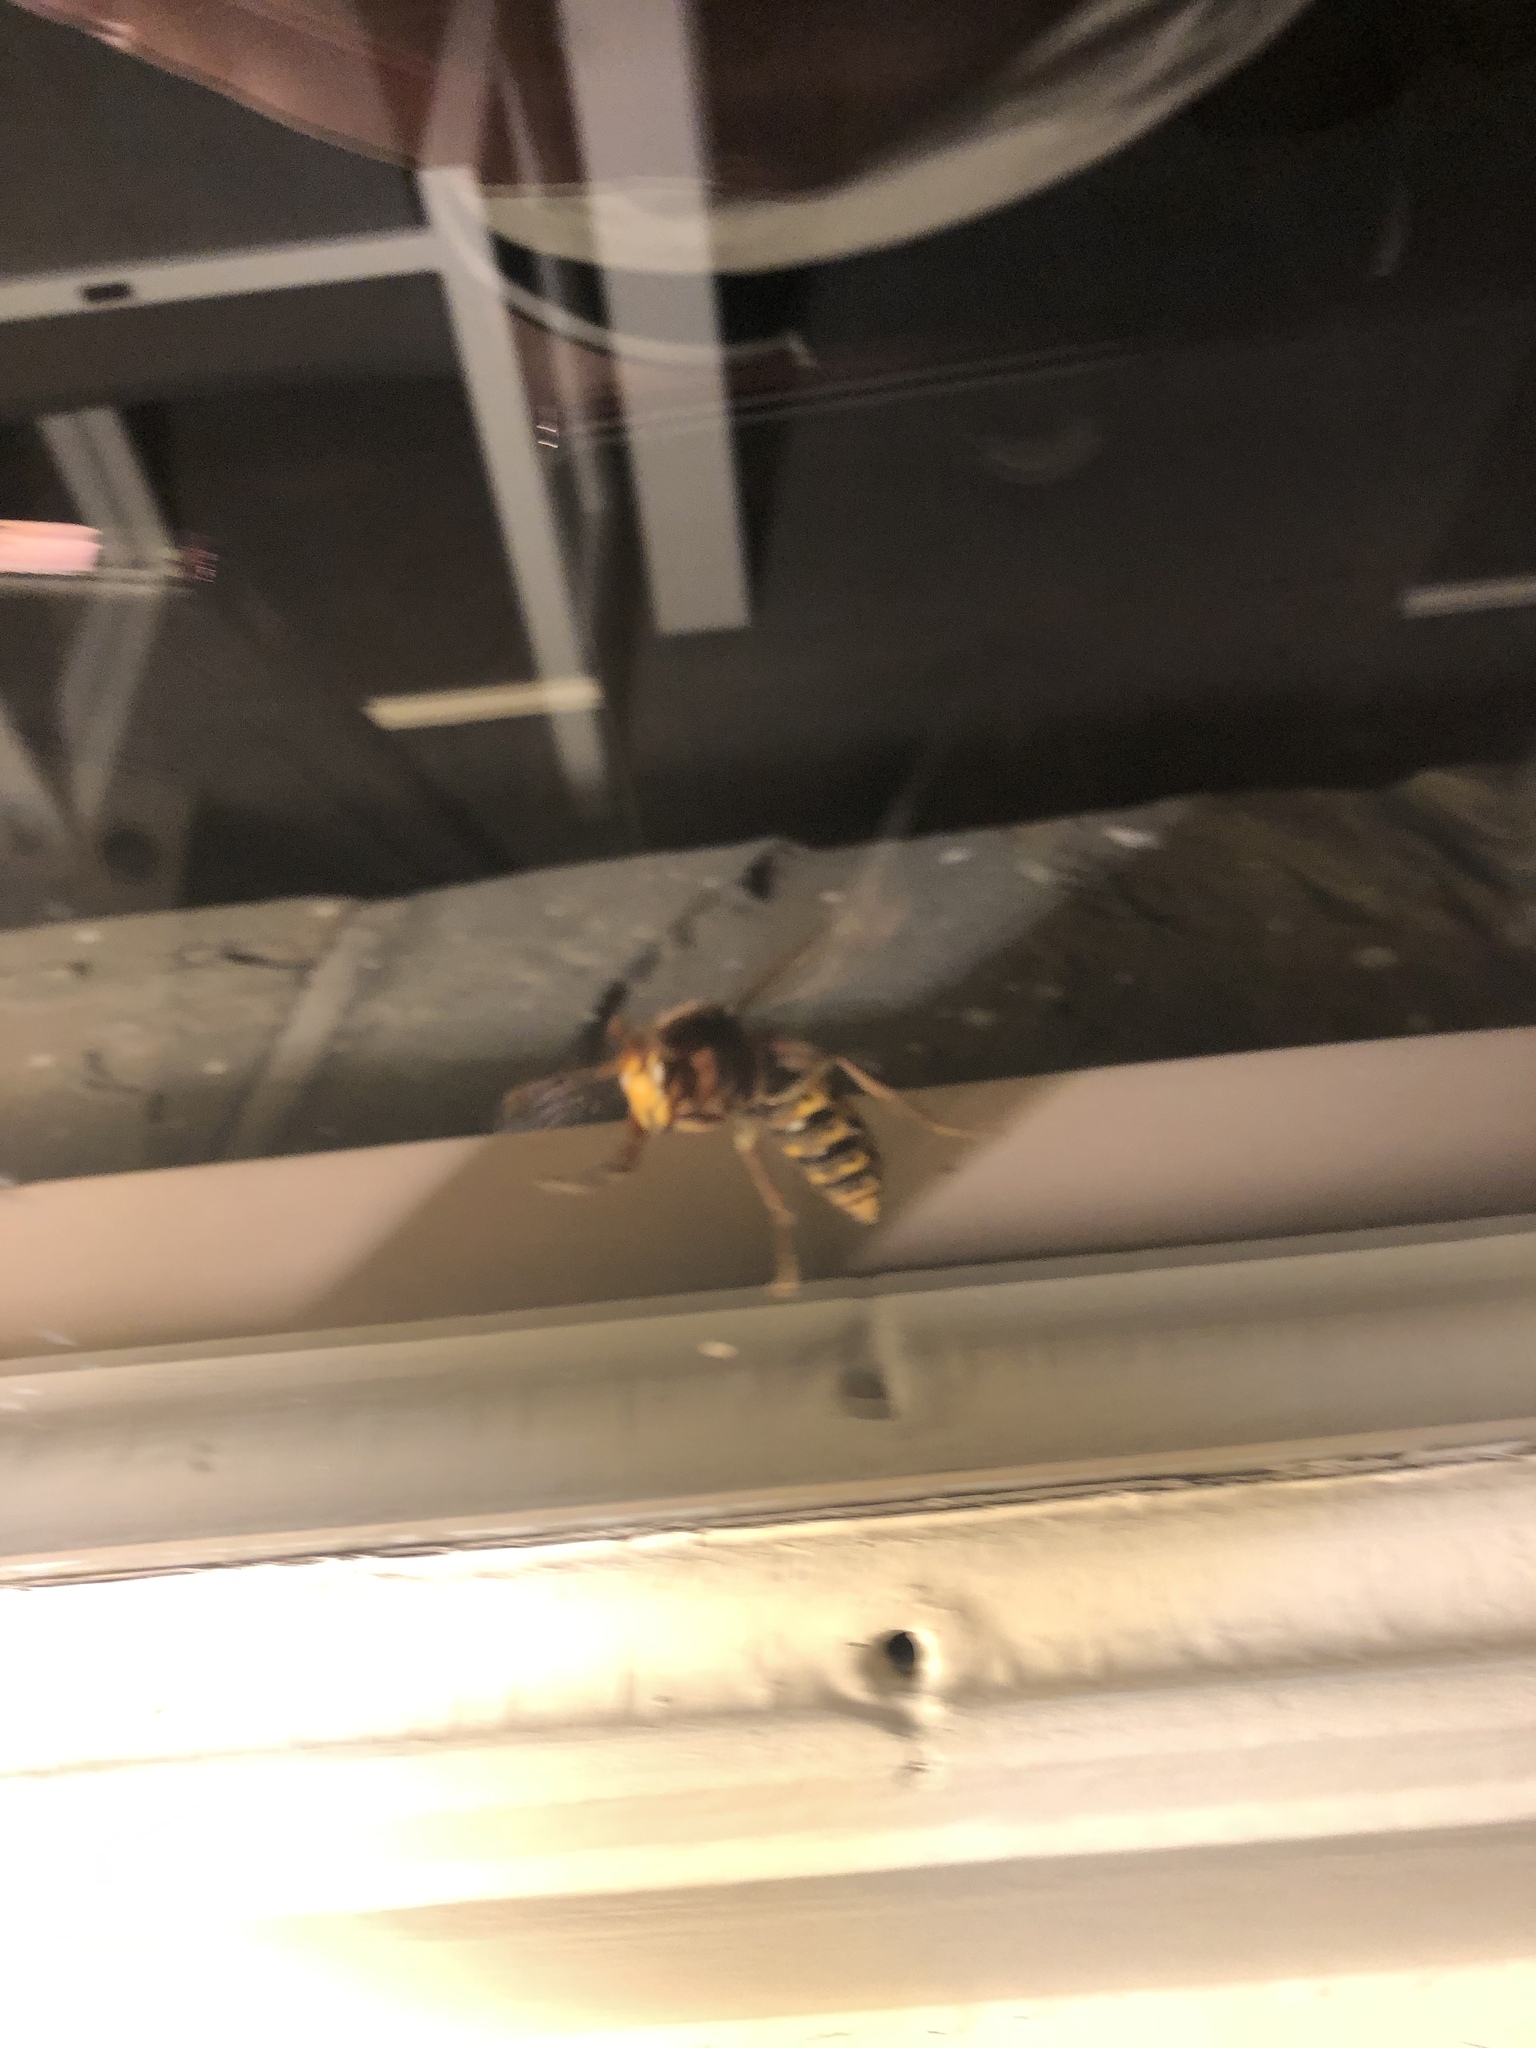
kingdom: Animalia
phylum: Arthropoda
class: Insecta
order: Hymenoptera
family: Vespidae
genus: Vespa
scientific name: Vespa crabro
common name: Hornet
